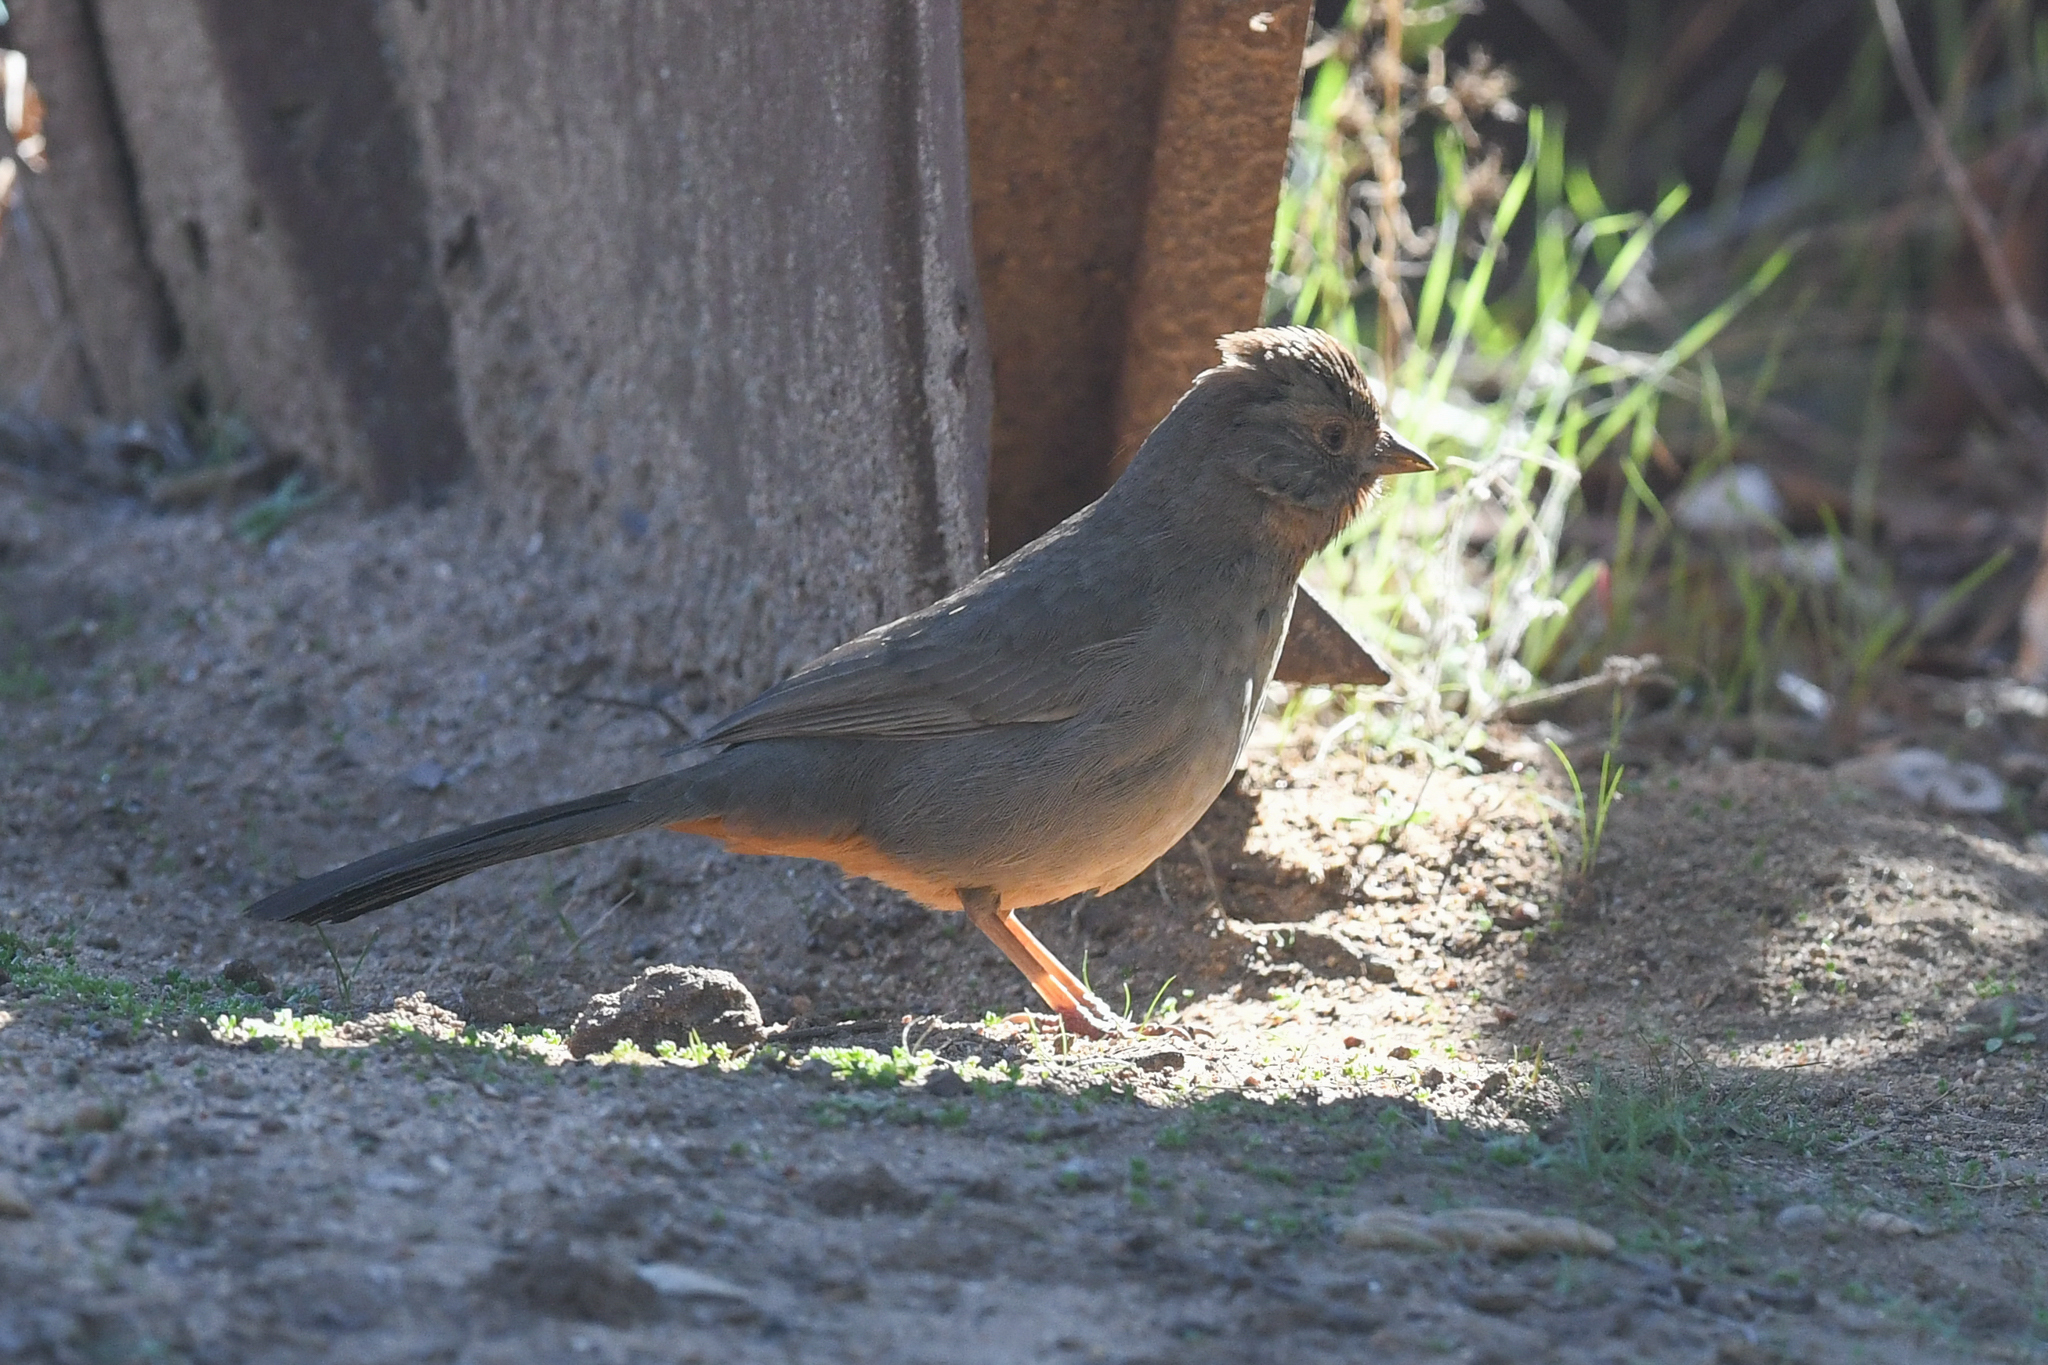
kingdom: Animalia
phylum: Chordata
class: Aves
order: Passeriformes
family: Passerellidae
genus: Melozone
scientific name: Melozone crissalis
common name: California towhee
